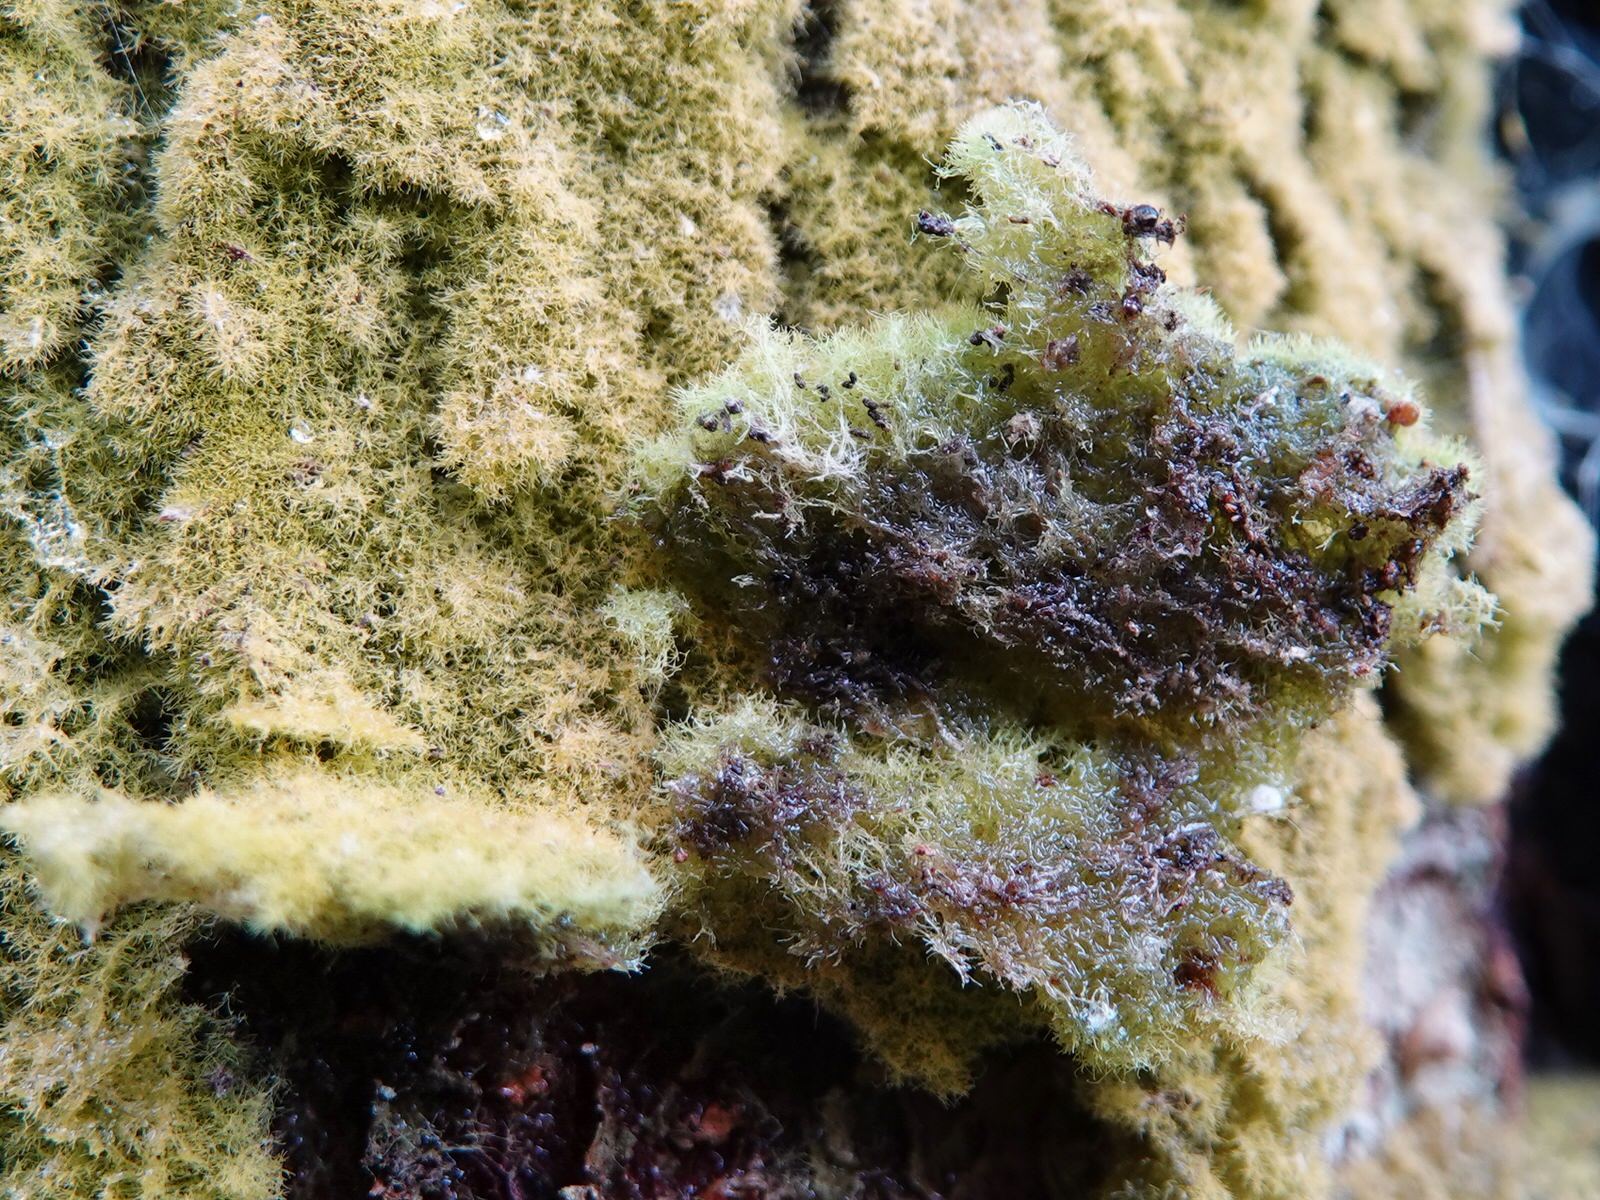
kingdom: Fungi
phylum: Ascomycota
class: Lecanoromycetes
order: Ostropales
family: Coenogoniaceae
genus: Coenogonium
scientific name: Coenogonium implexum
